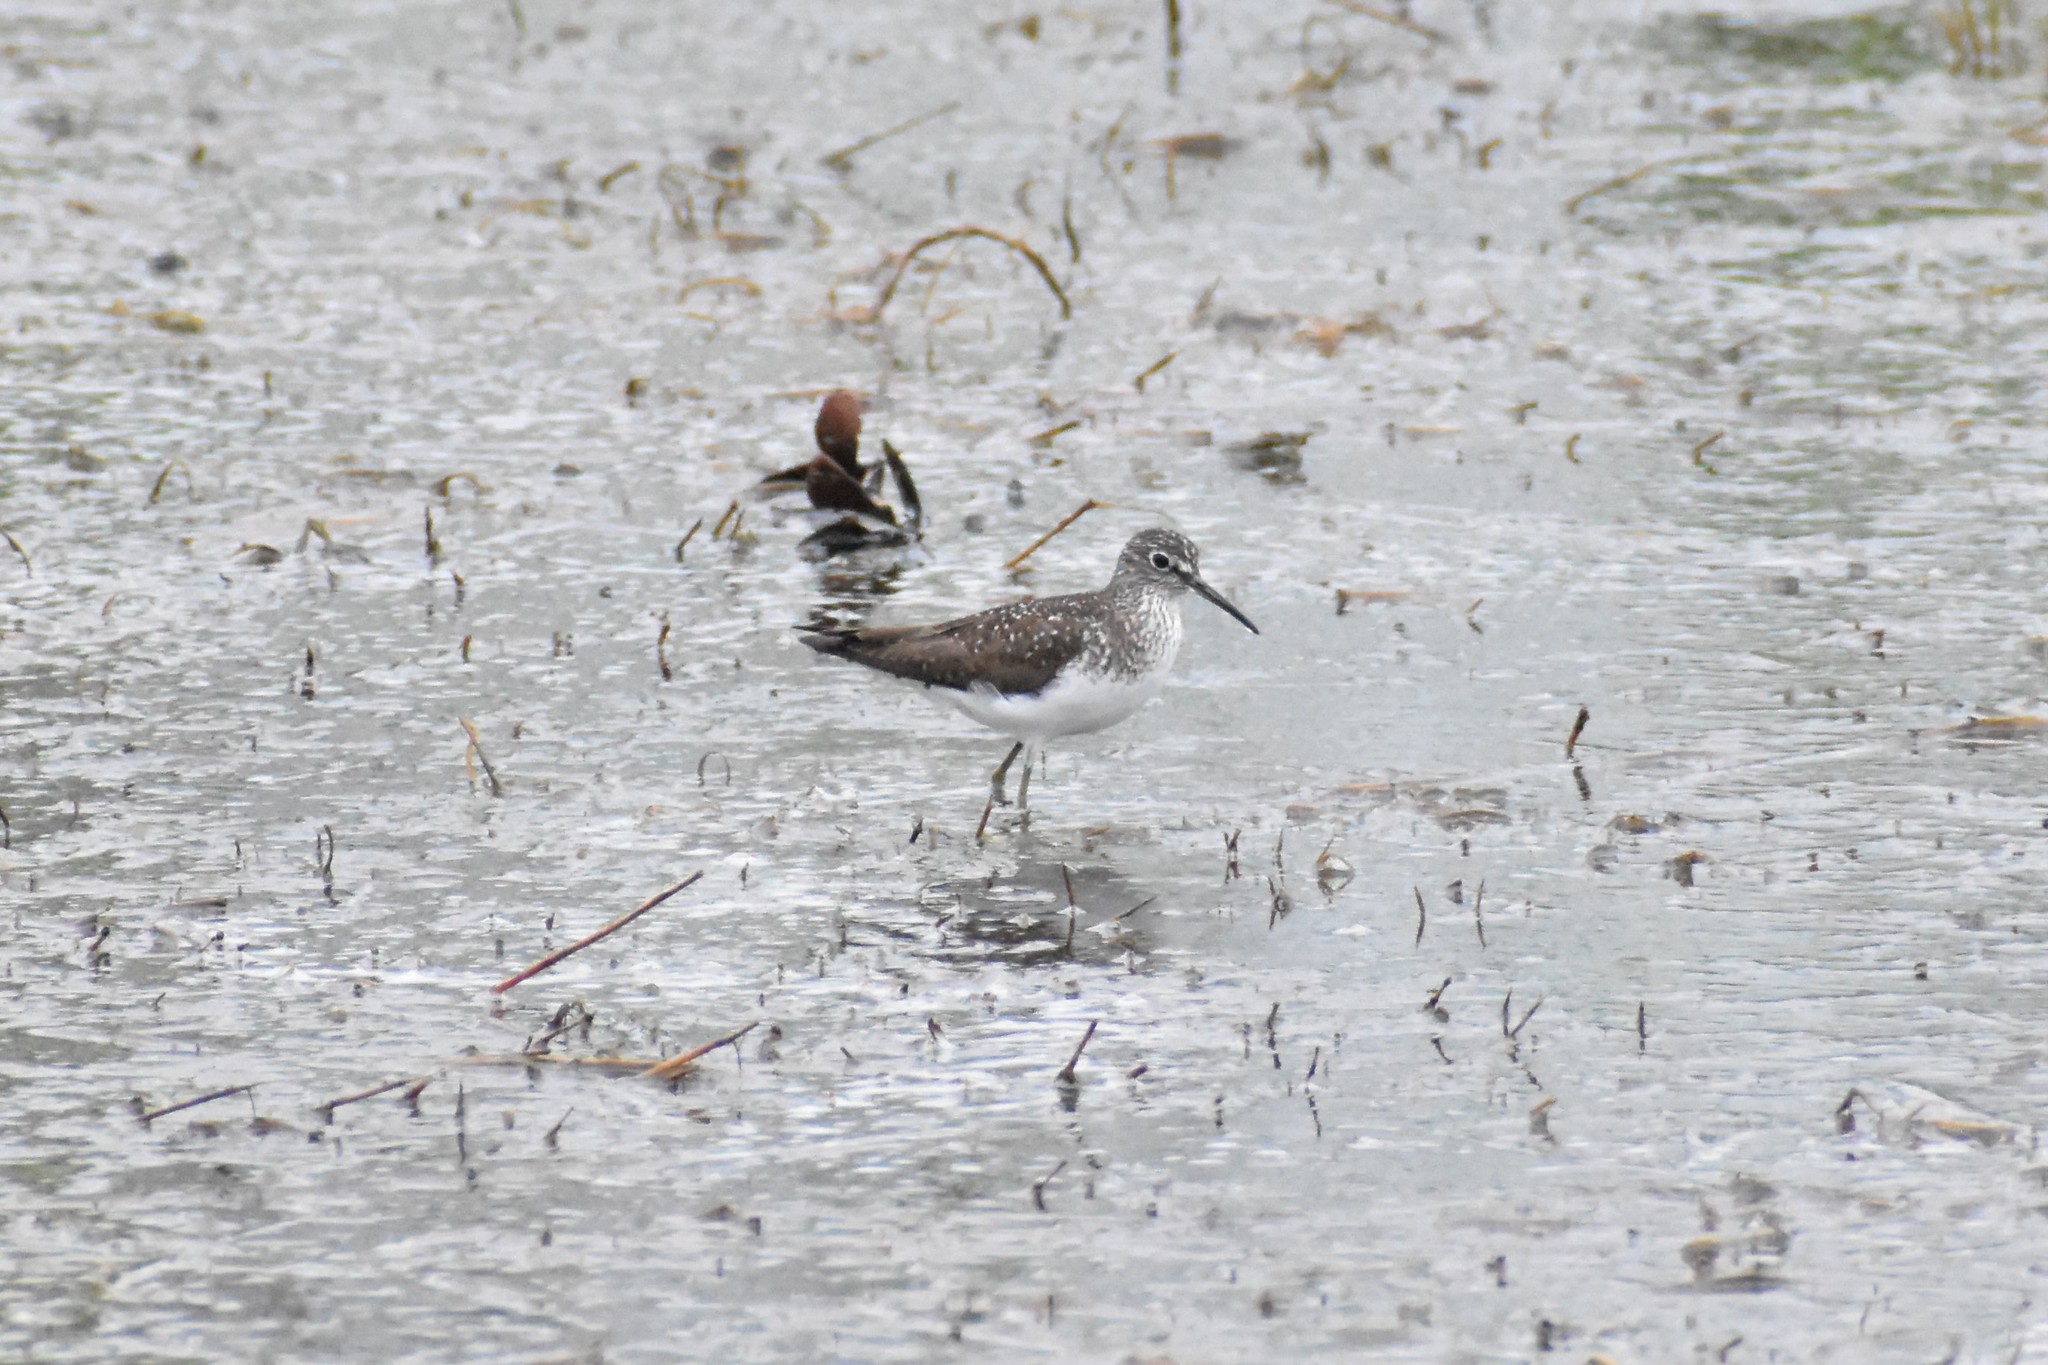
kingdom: Animalia
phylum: Chordata
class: Aves
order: Charadriiformes
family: Scolopacidae
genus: Tringa
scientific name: Tringa solitaria
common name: Solitary sandpiper
